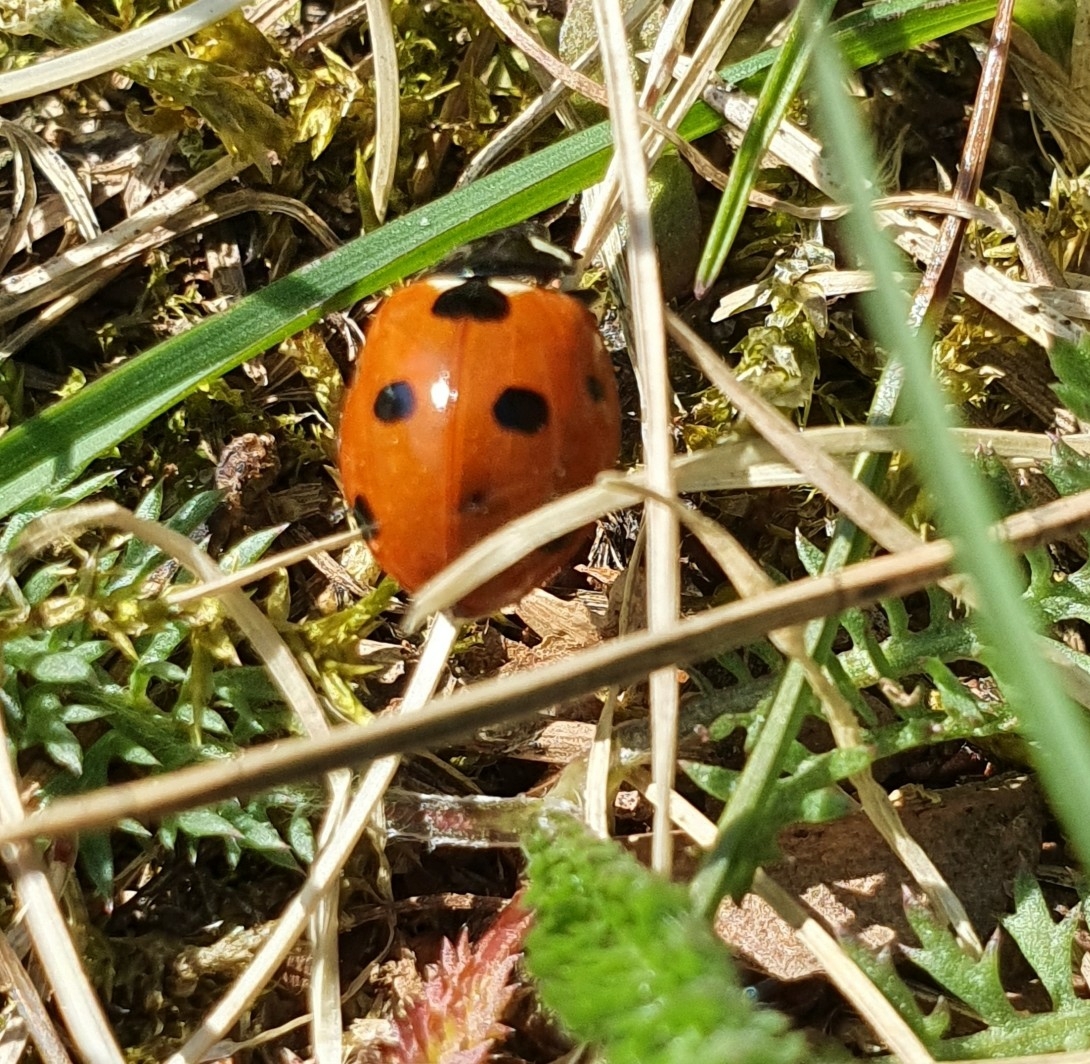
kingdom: Animalia
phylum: Arthropoda
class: Insecta
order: Coleoptera
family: Coccinellidae
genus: Coccinella
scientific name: Coccinella septempunctata
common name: Sevenspotted lady beetle
